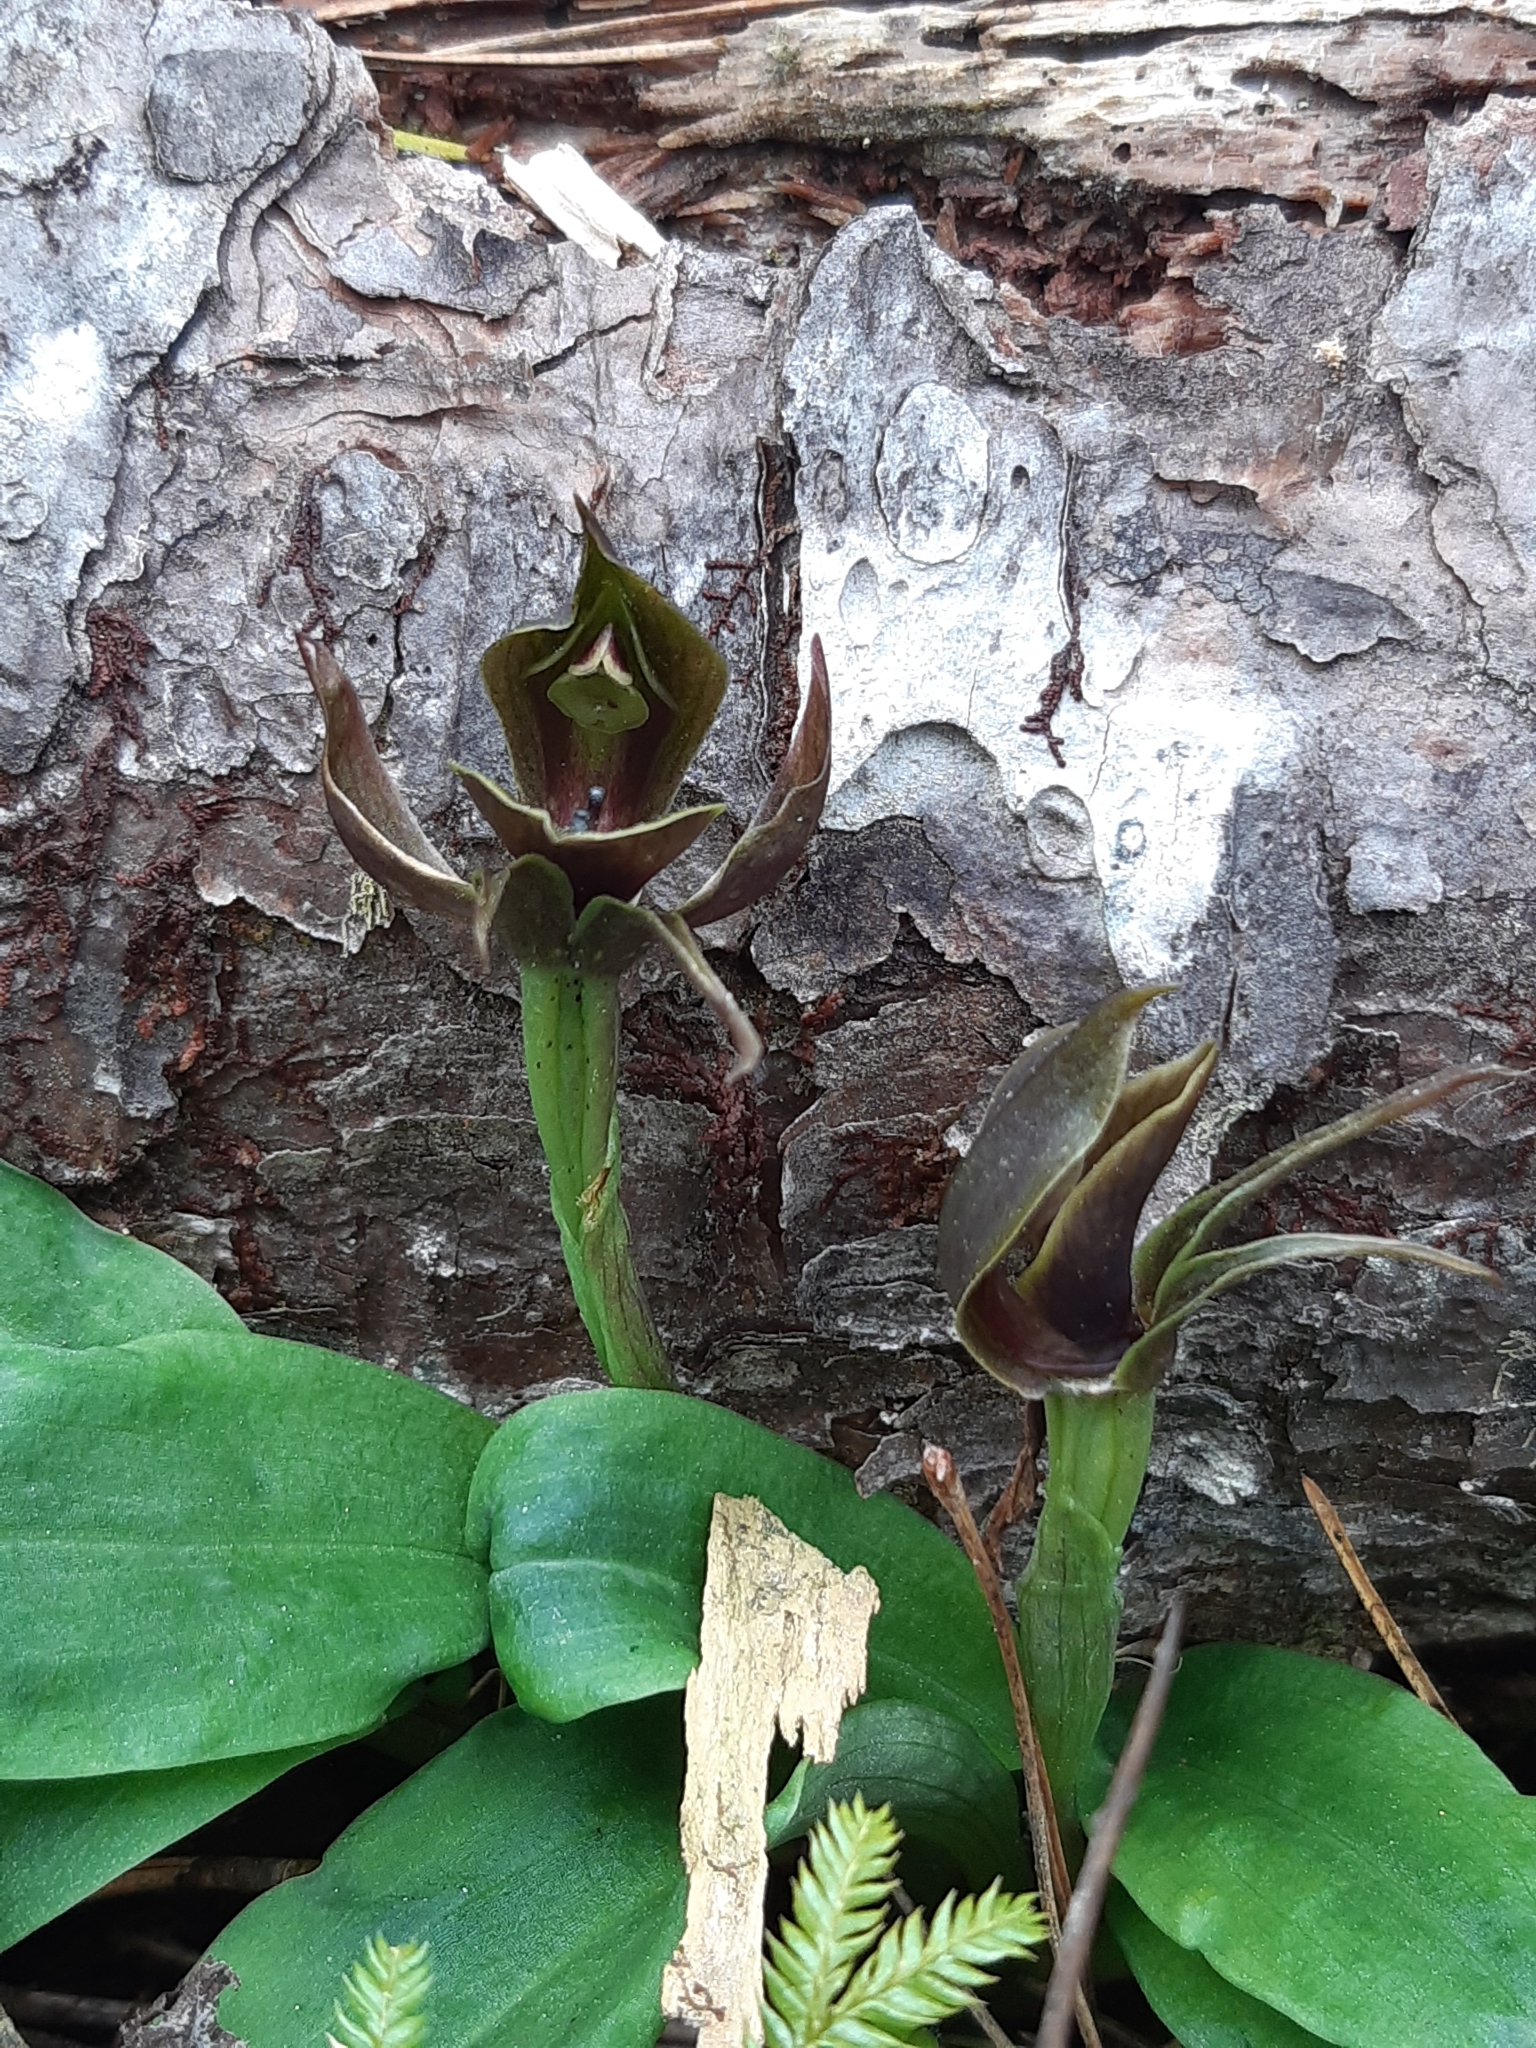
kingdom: Plantae
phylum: Tracheophyta
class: Liliopsida
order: Asparagales
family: Orchidaceae
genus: Chiloglottis
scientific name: Chiloglottis valida
